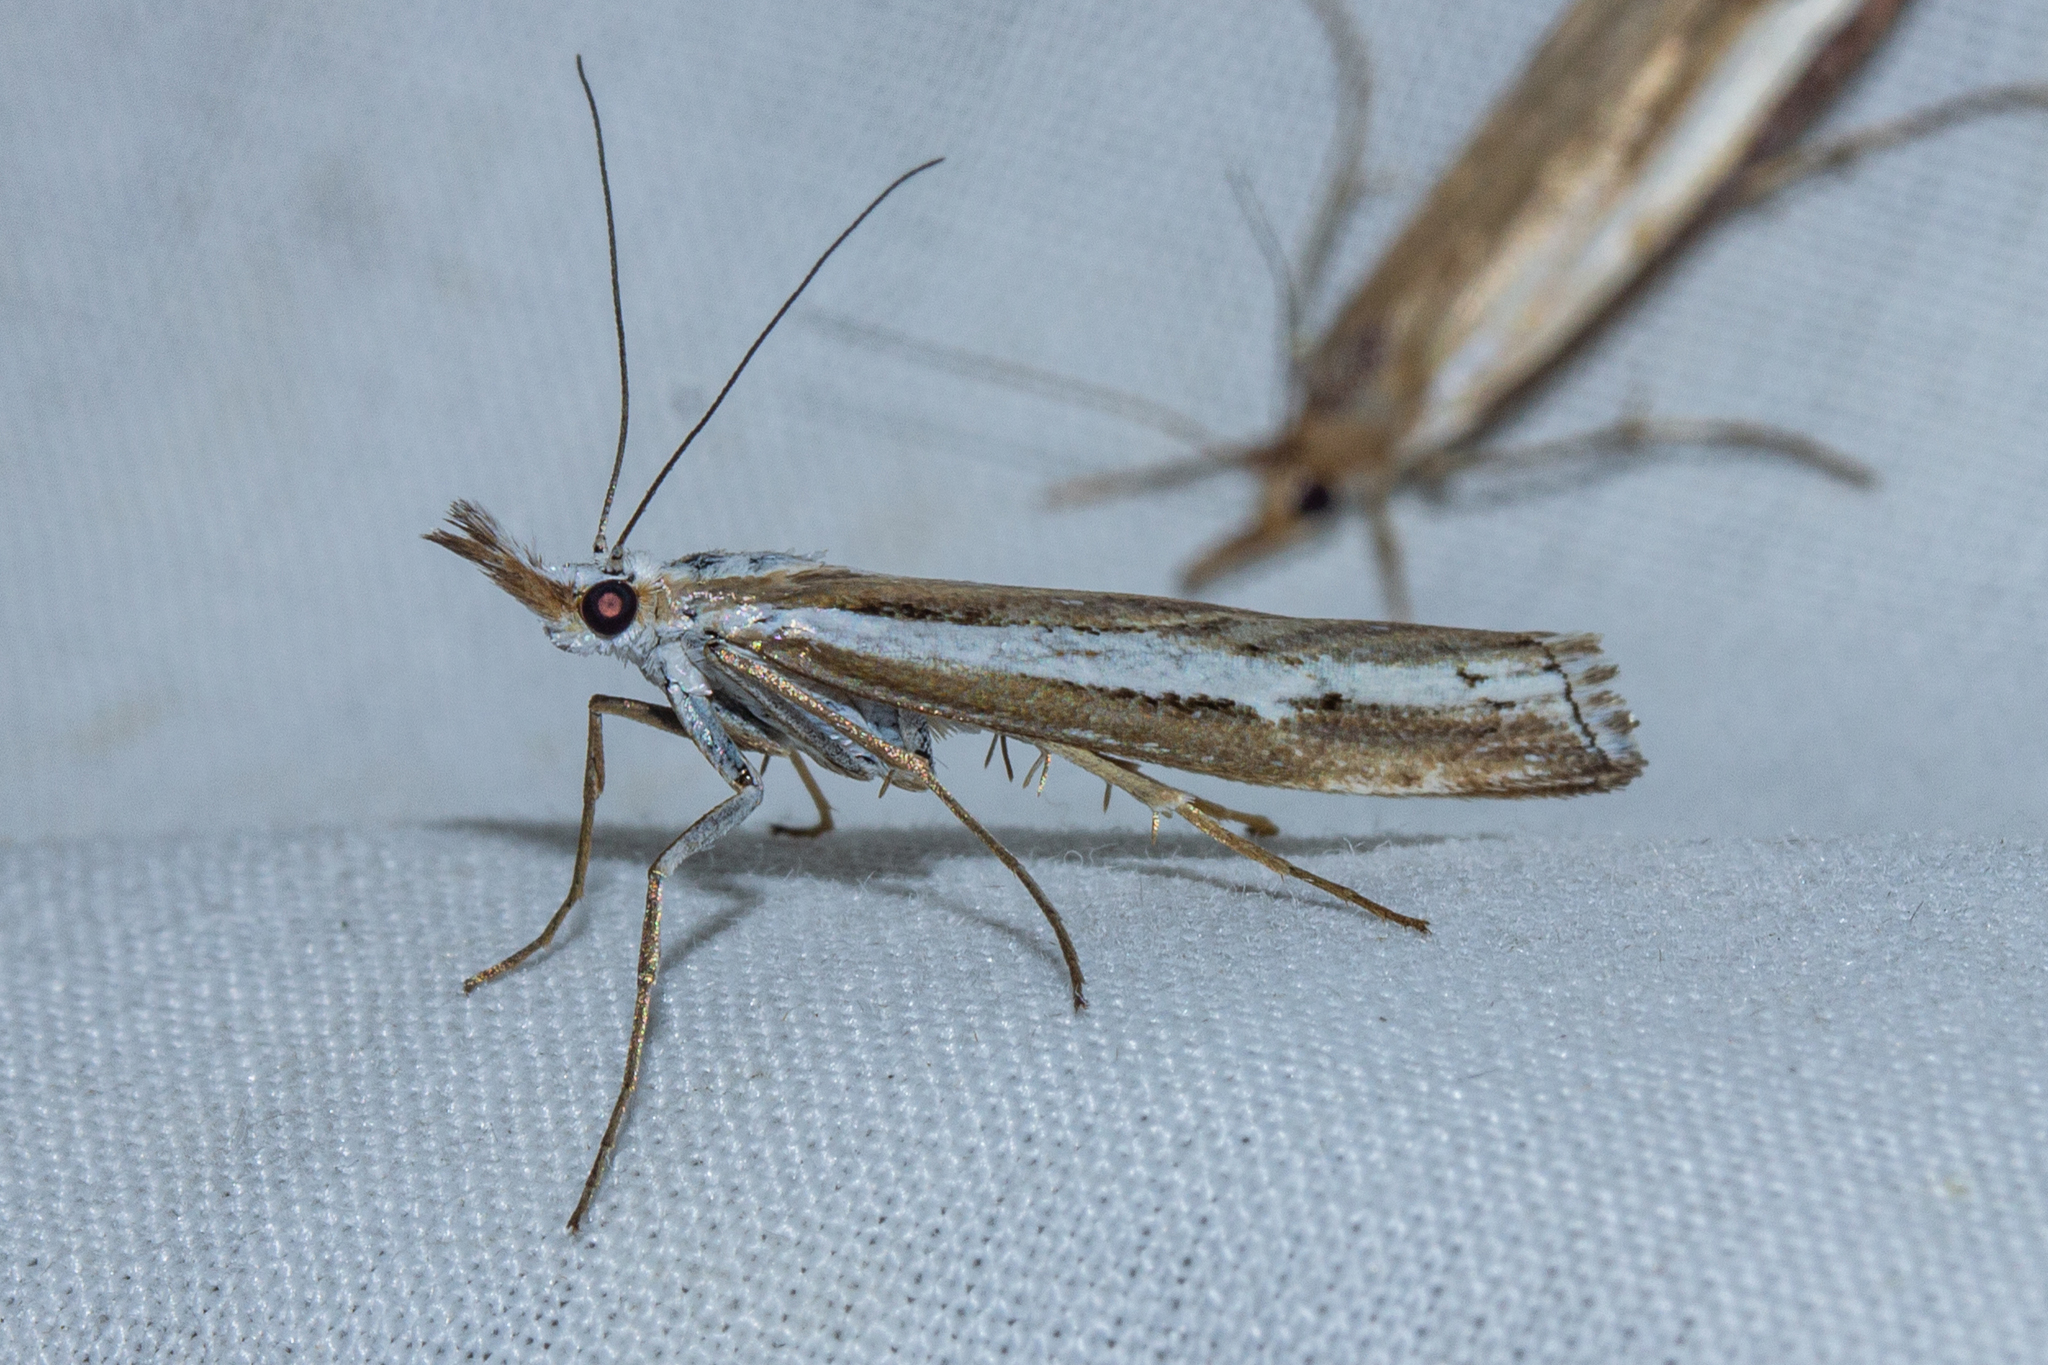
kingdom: Animalia
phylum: Arthropoda
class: Insecta
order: Lepidoptera
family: Crambidae
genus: Orocrambus
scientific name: Orocrambus vittellus
